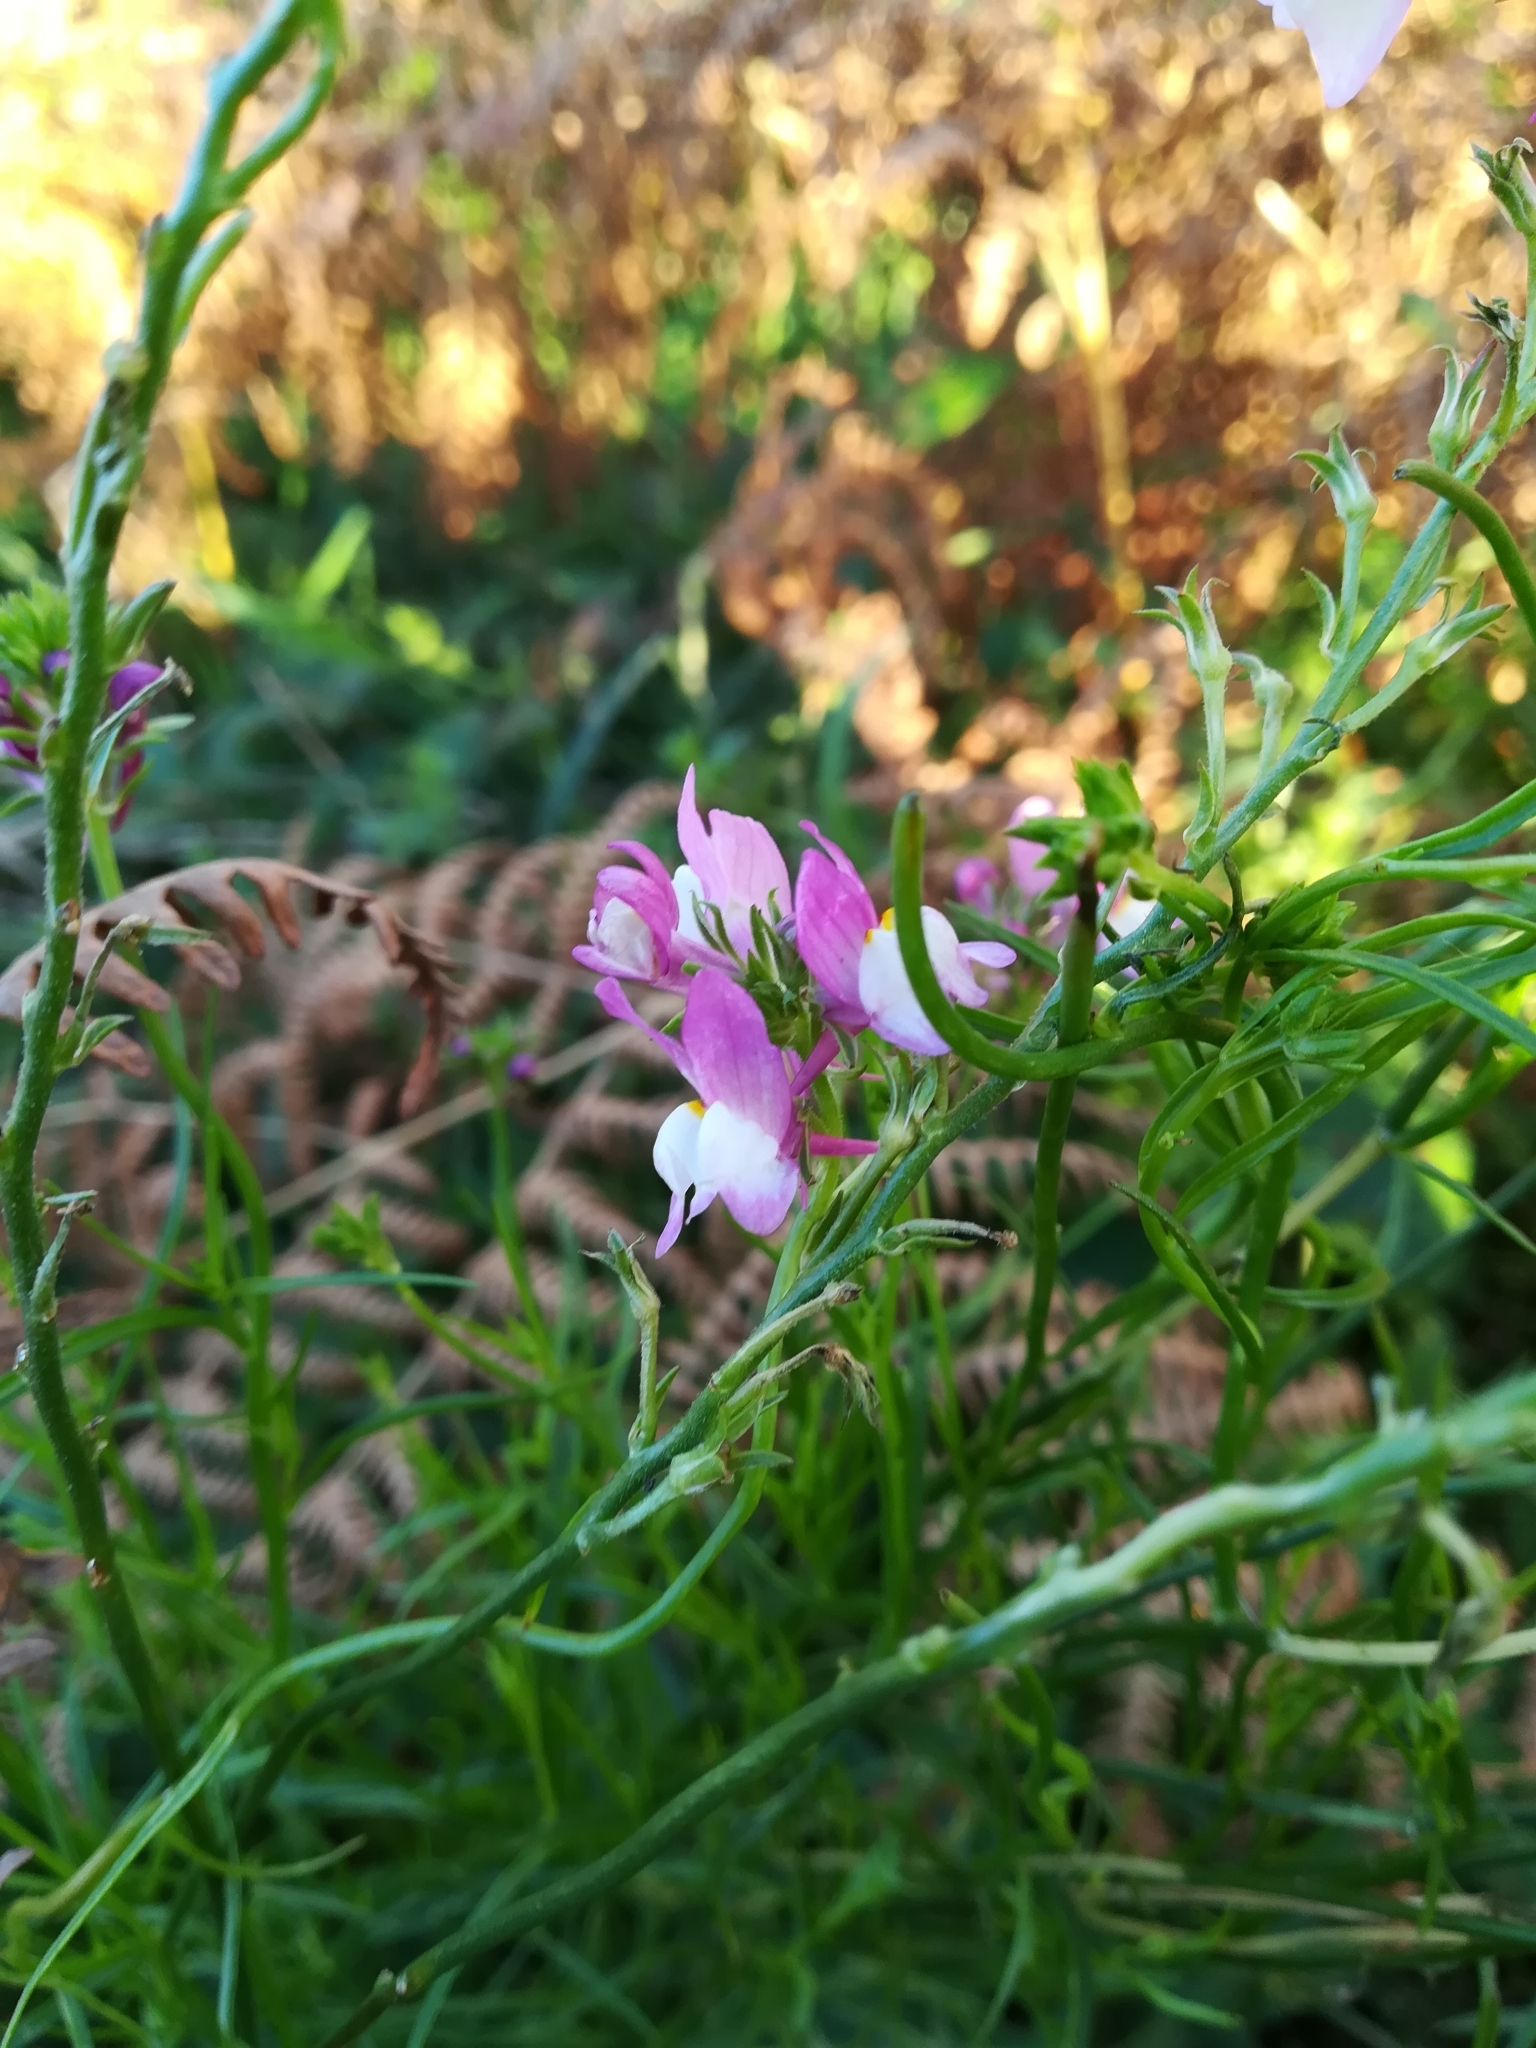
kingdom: Plantae
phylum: Tracheophyta
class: Magnoliopsida
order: Lamiales
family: Plantaginaceae
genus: Linaria
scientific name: Linaria maroccana
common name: Moroccan toadflax
